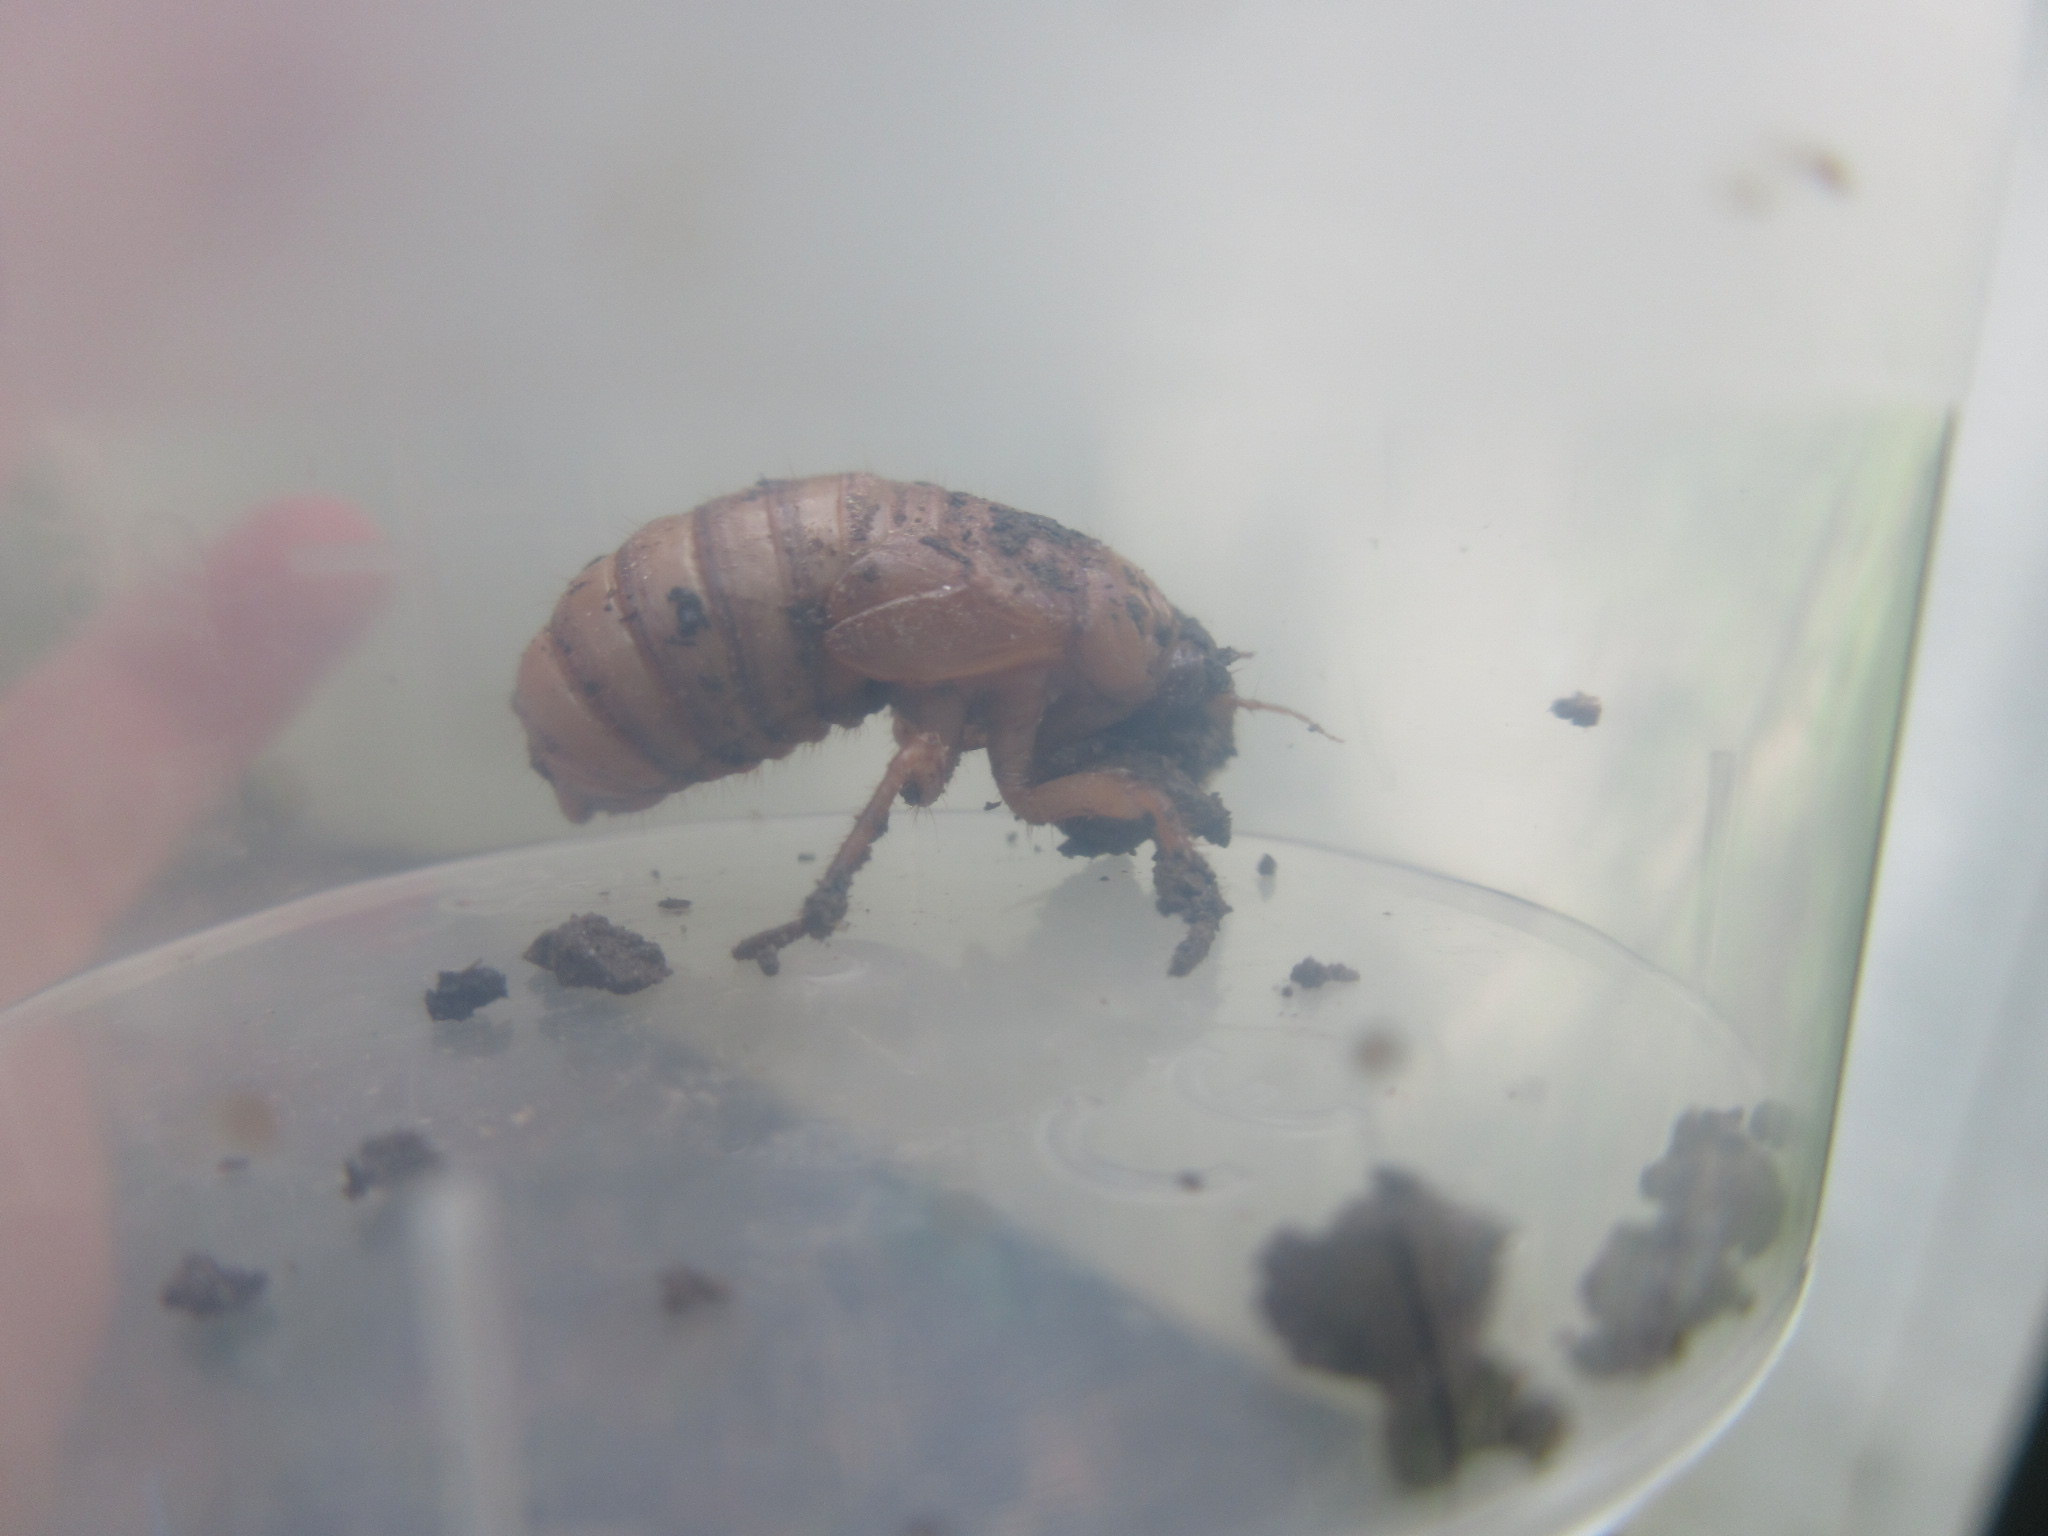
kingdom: Animalia
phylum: Arthropoda
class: Insecta
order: Hemiptera
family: Cicadidae
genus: Magicicada
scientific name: Magicicada
